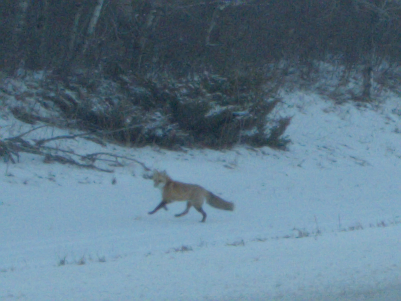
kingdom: Animalia
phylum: Chordata
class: Mammalia
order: Carnivora
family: Canidae
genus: Vulpes
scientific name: Vulpes vulpes
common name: Red fox
